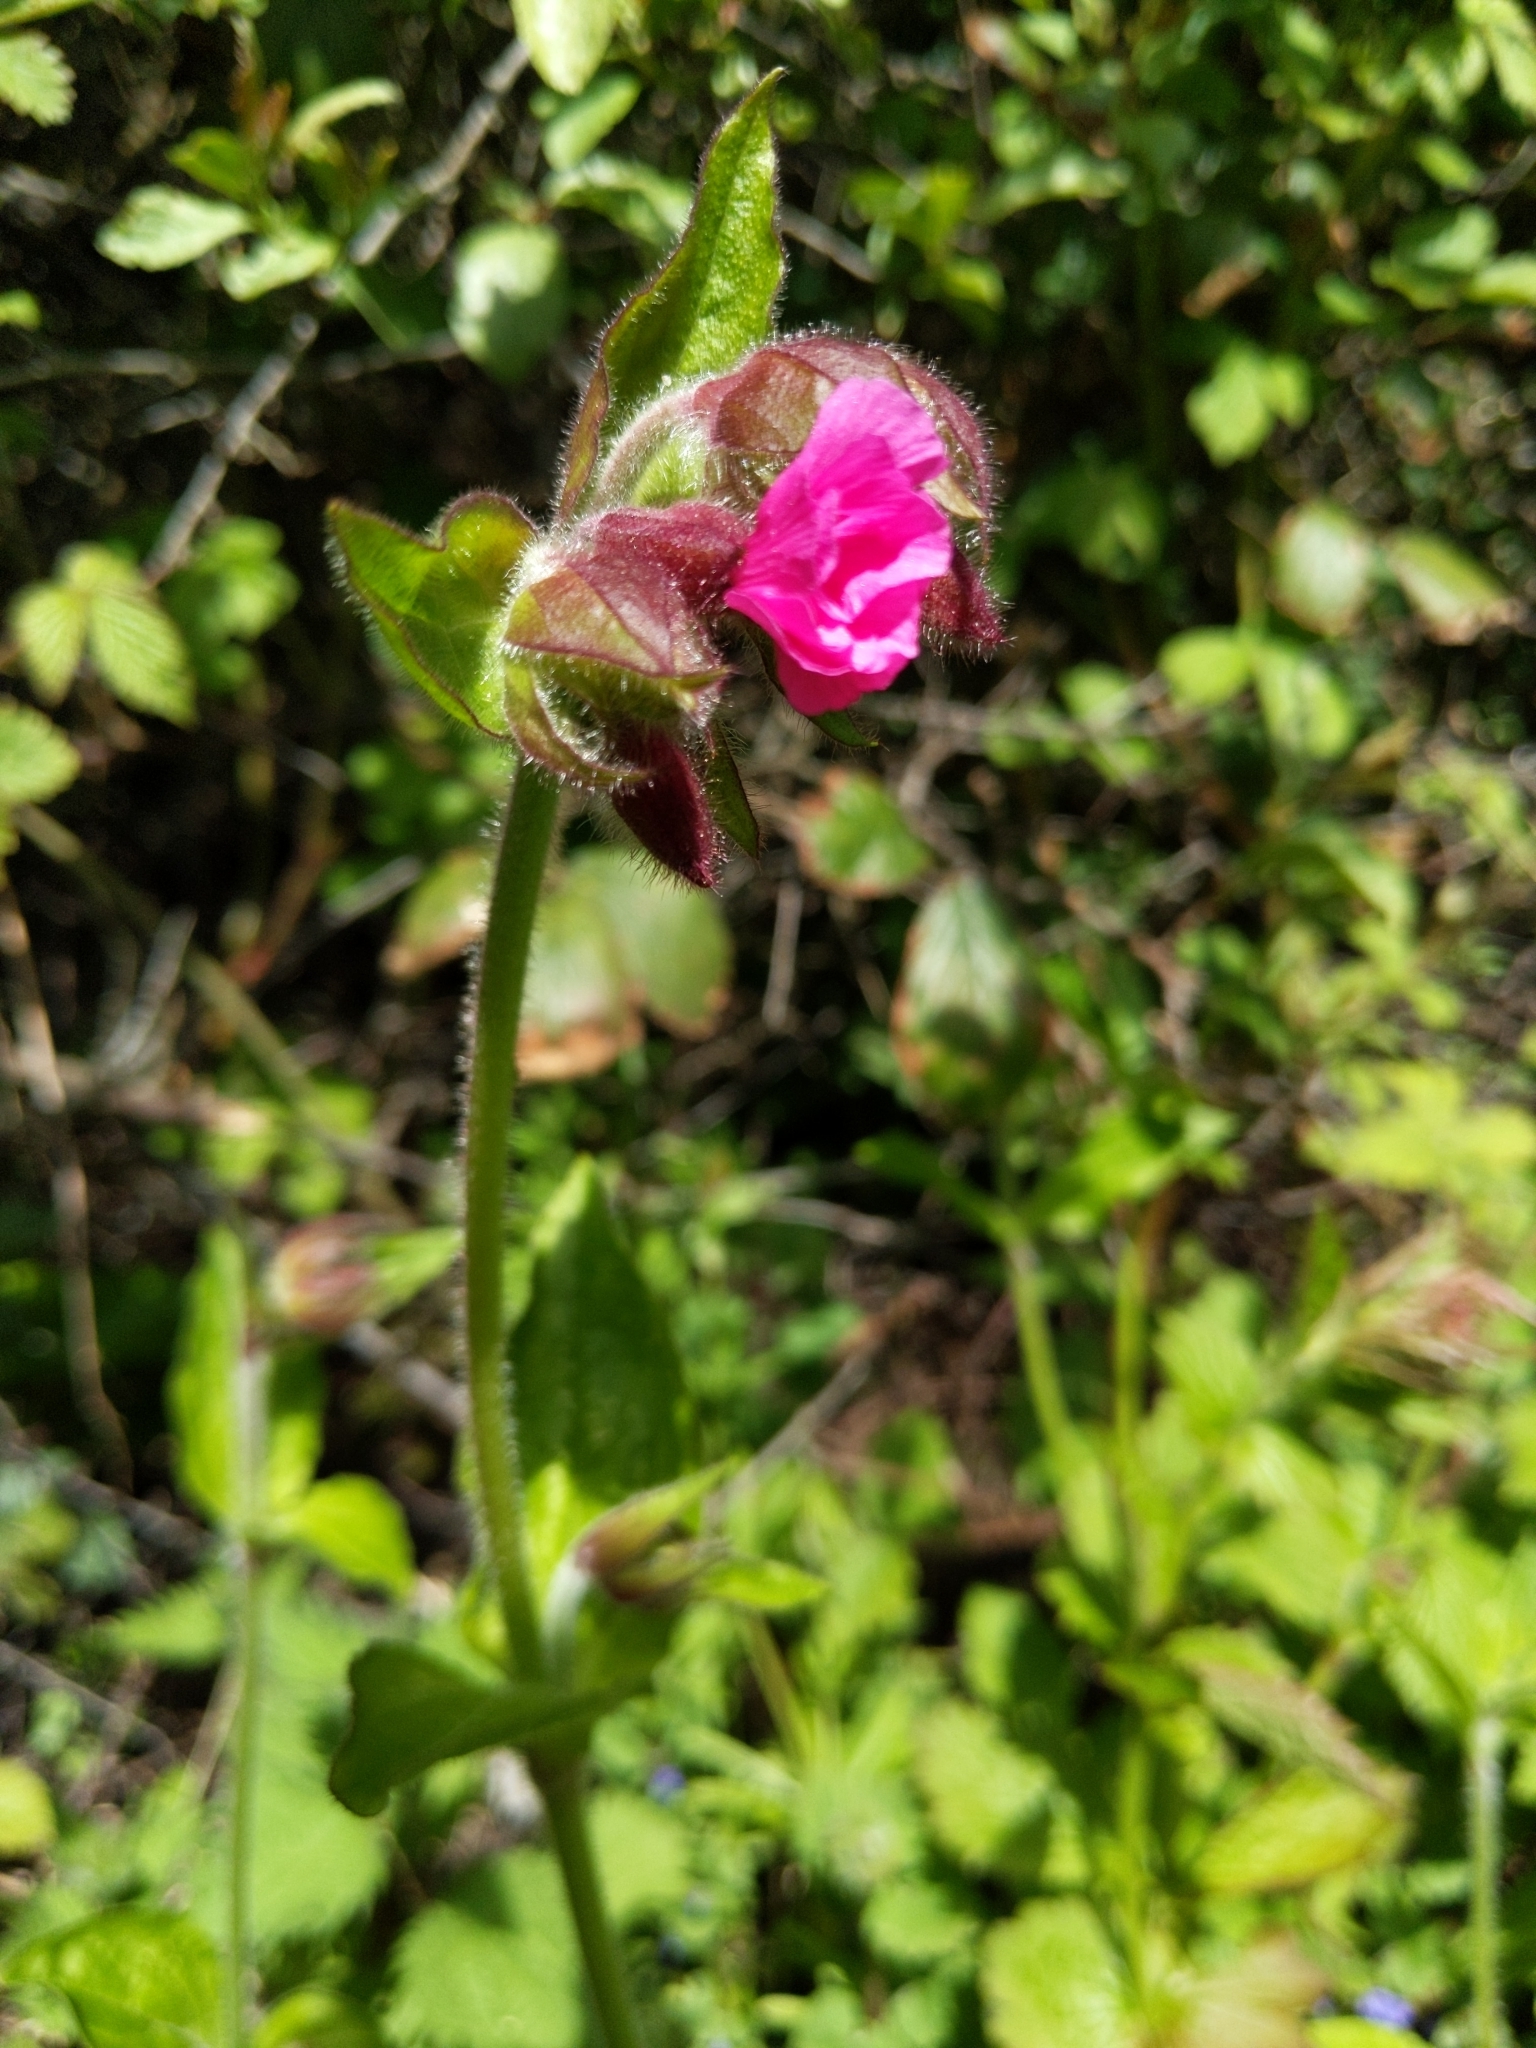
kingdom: Plantae
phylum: Tracheophyta
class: Magnoliopsida
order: Caryophyllales
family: Caryophyllaceae
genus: Silene
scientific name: Silene dioica
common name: Red campion
